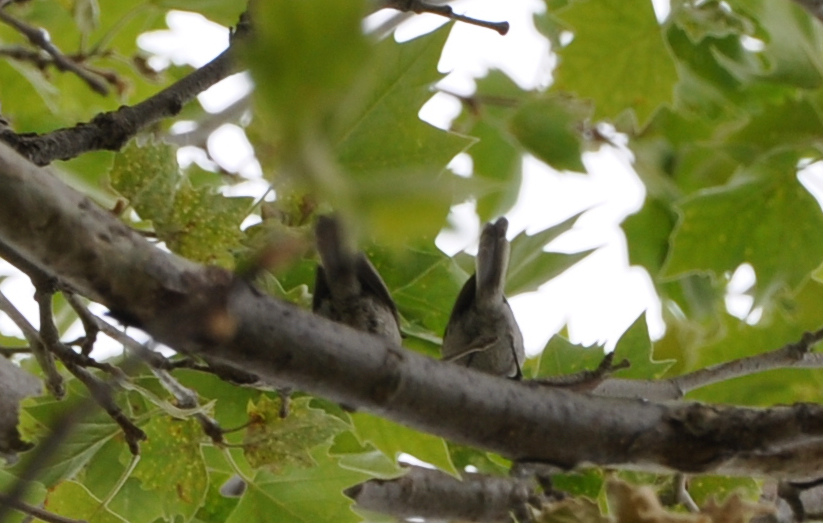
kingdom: Animalia
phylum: Chordata
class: Aves
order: Passeriformes
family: Aegithalidae
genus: Psaltriparus
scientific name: Psaltriparus minimus
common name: American bushtit
